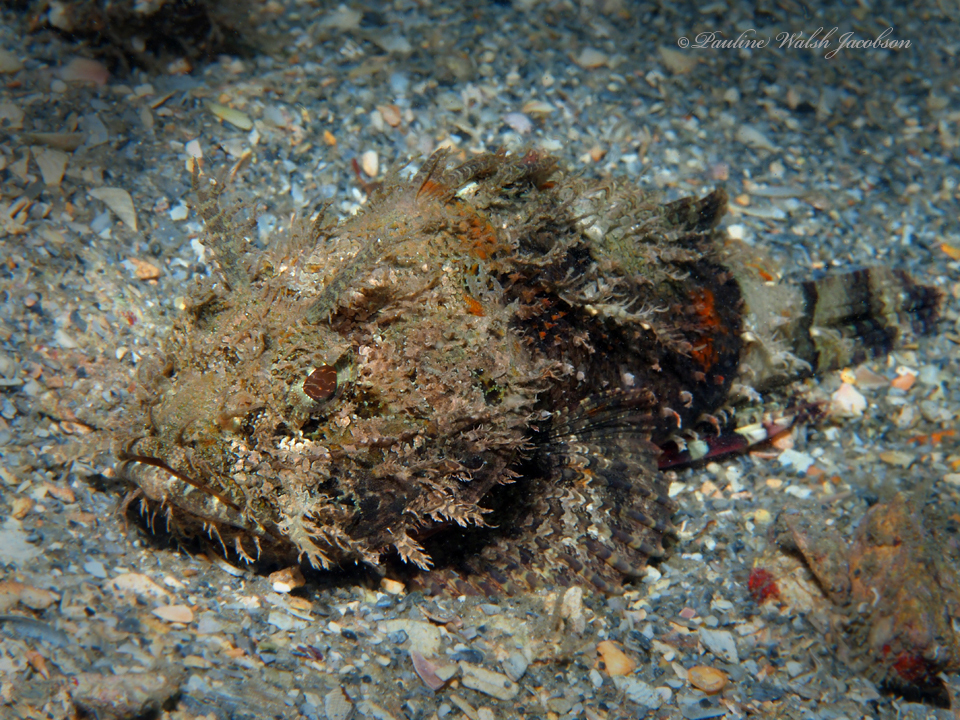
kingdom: Animalia
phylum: Chordata
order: Scorpaeniformes
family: Scorpaenidae
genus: Scorpaena
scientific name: Scorpaena plumieri
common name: Spotted scorpionfish
